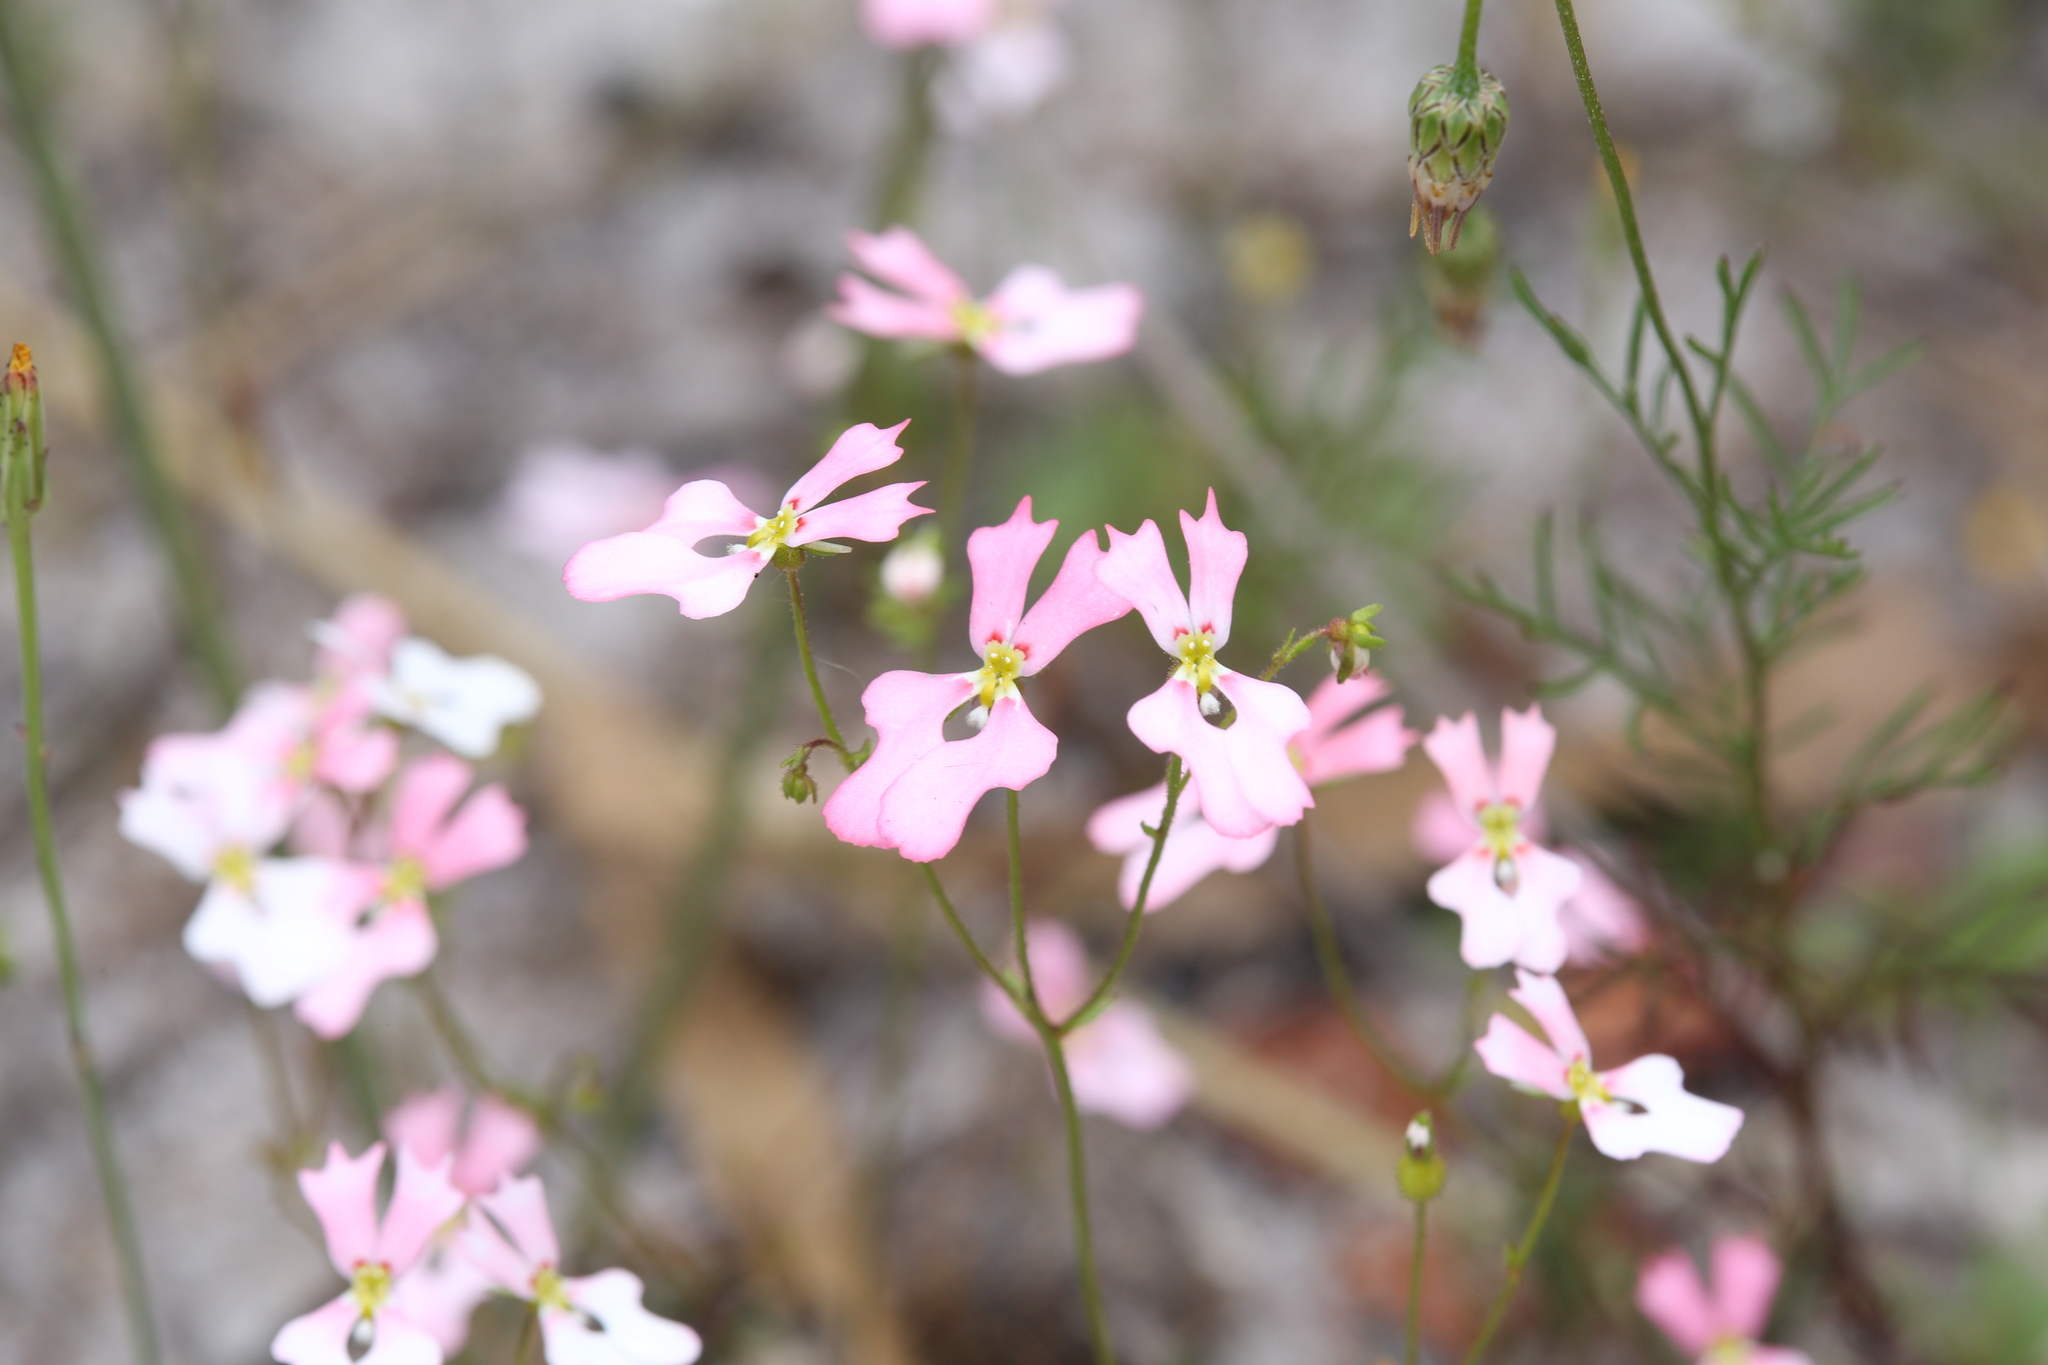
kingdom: Plantae
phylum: Tracheophyta
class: Magnoliopsida
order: Asterales
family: Stylidiaceae
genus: Stylidium
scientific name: Stylidium androsaceum
